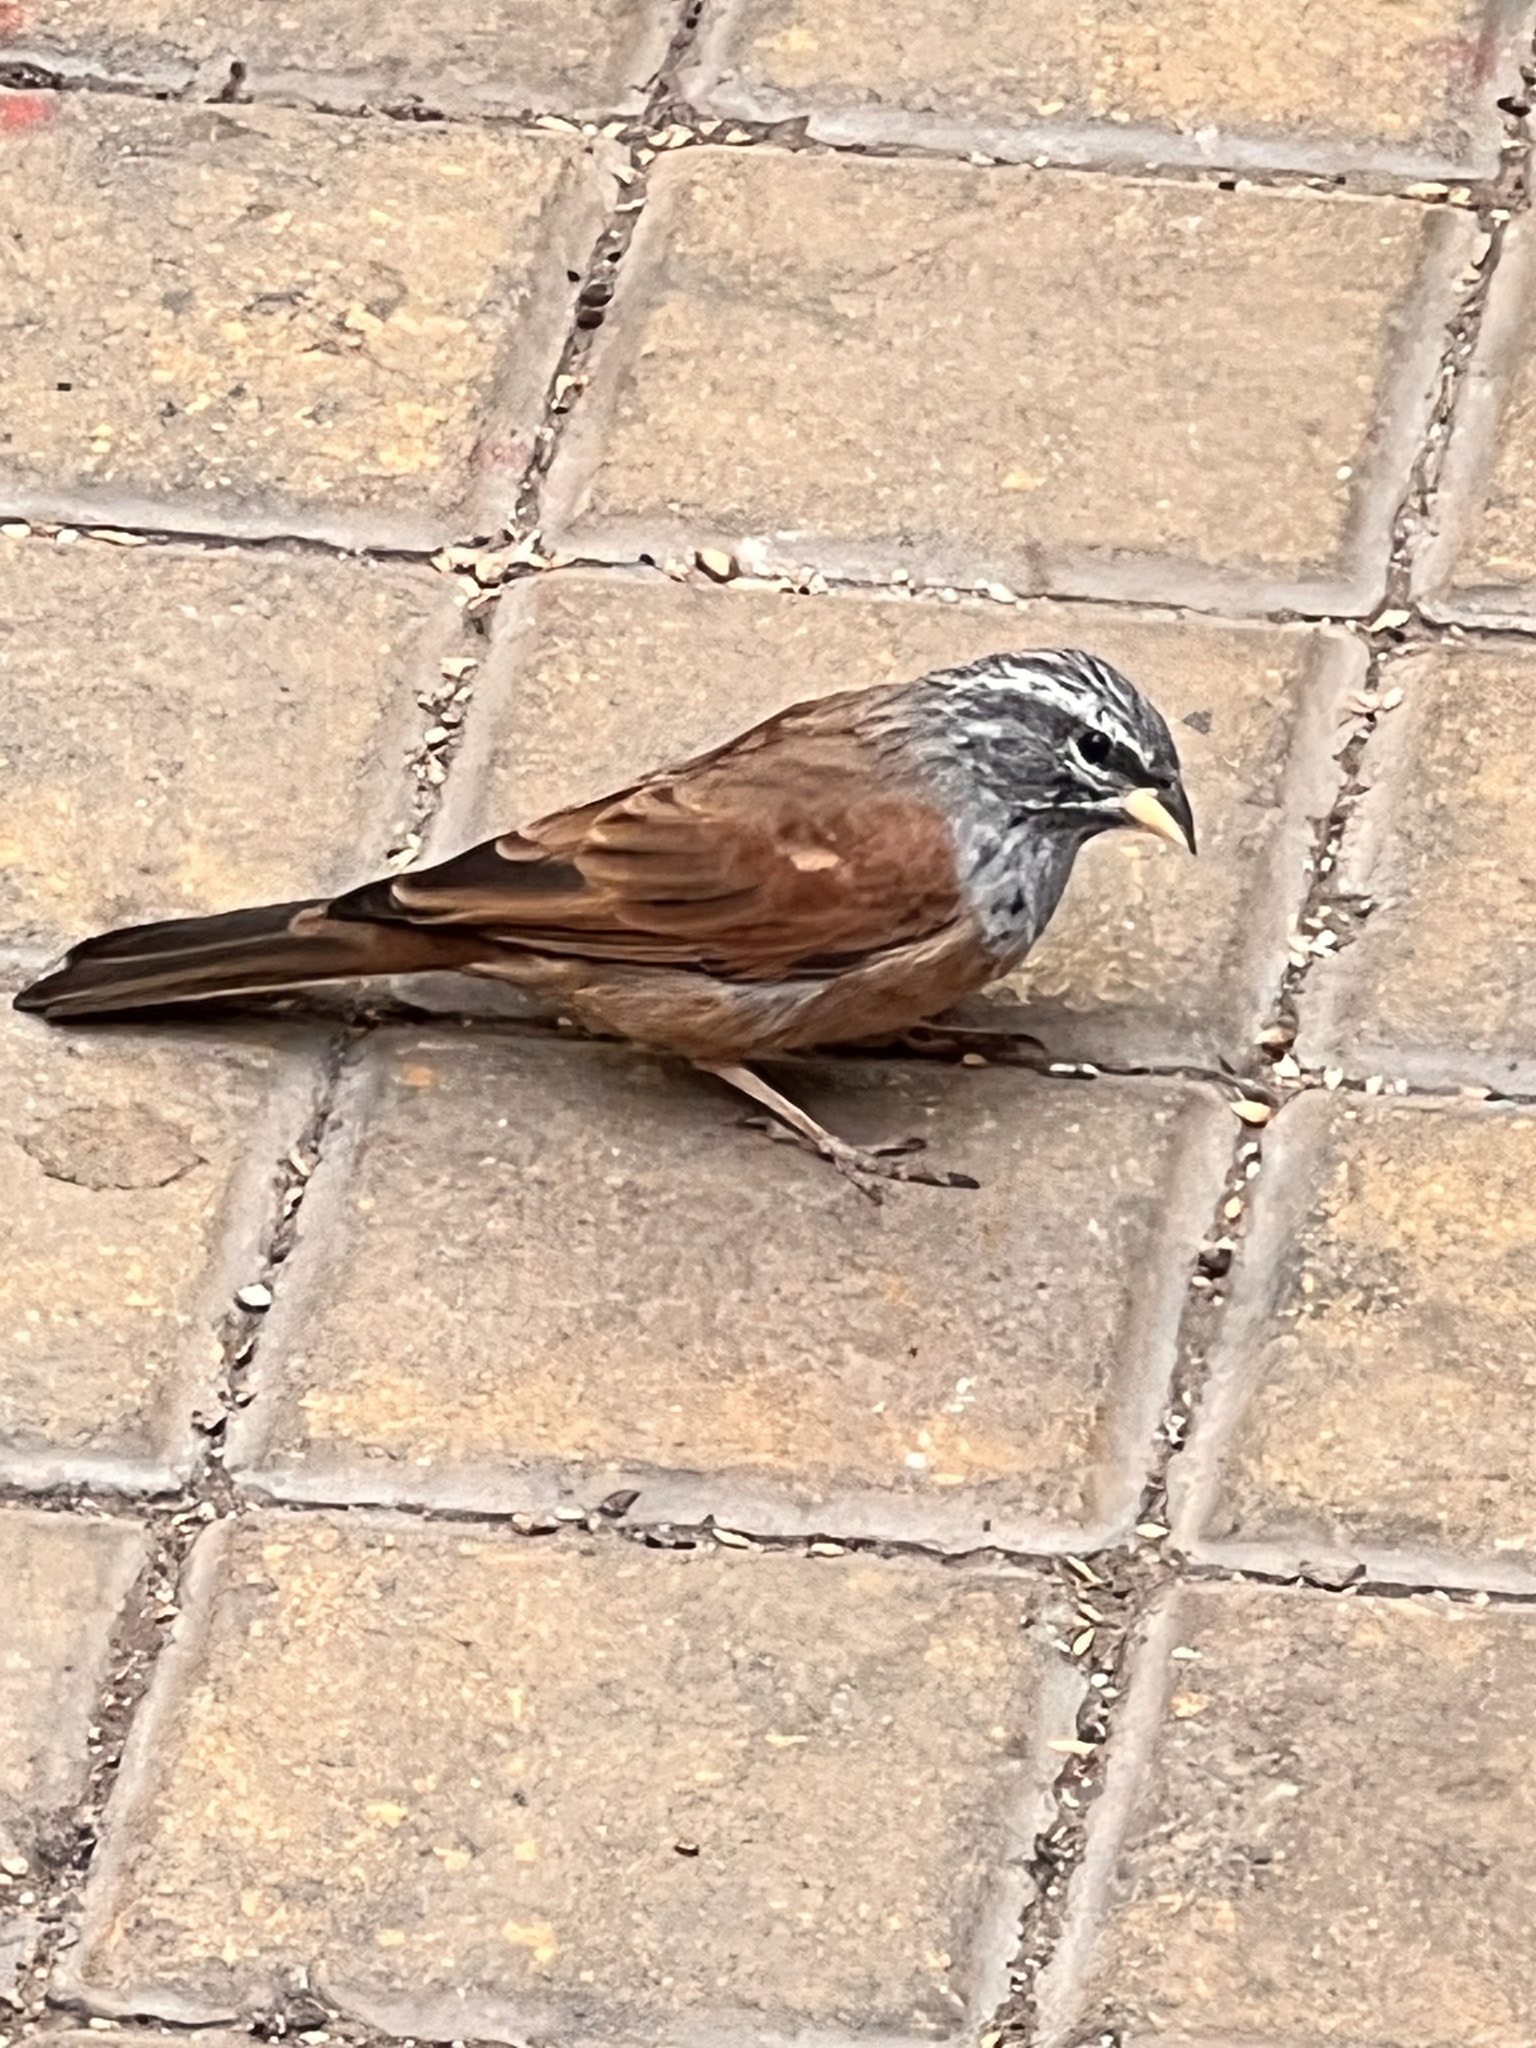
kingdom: Animalia
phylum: Chordata
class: Aves
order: Passeriformes
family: Emberizidae
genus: Emberiza
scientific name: Emberiza sahari
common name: House bunting
